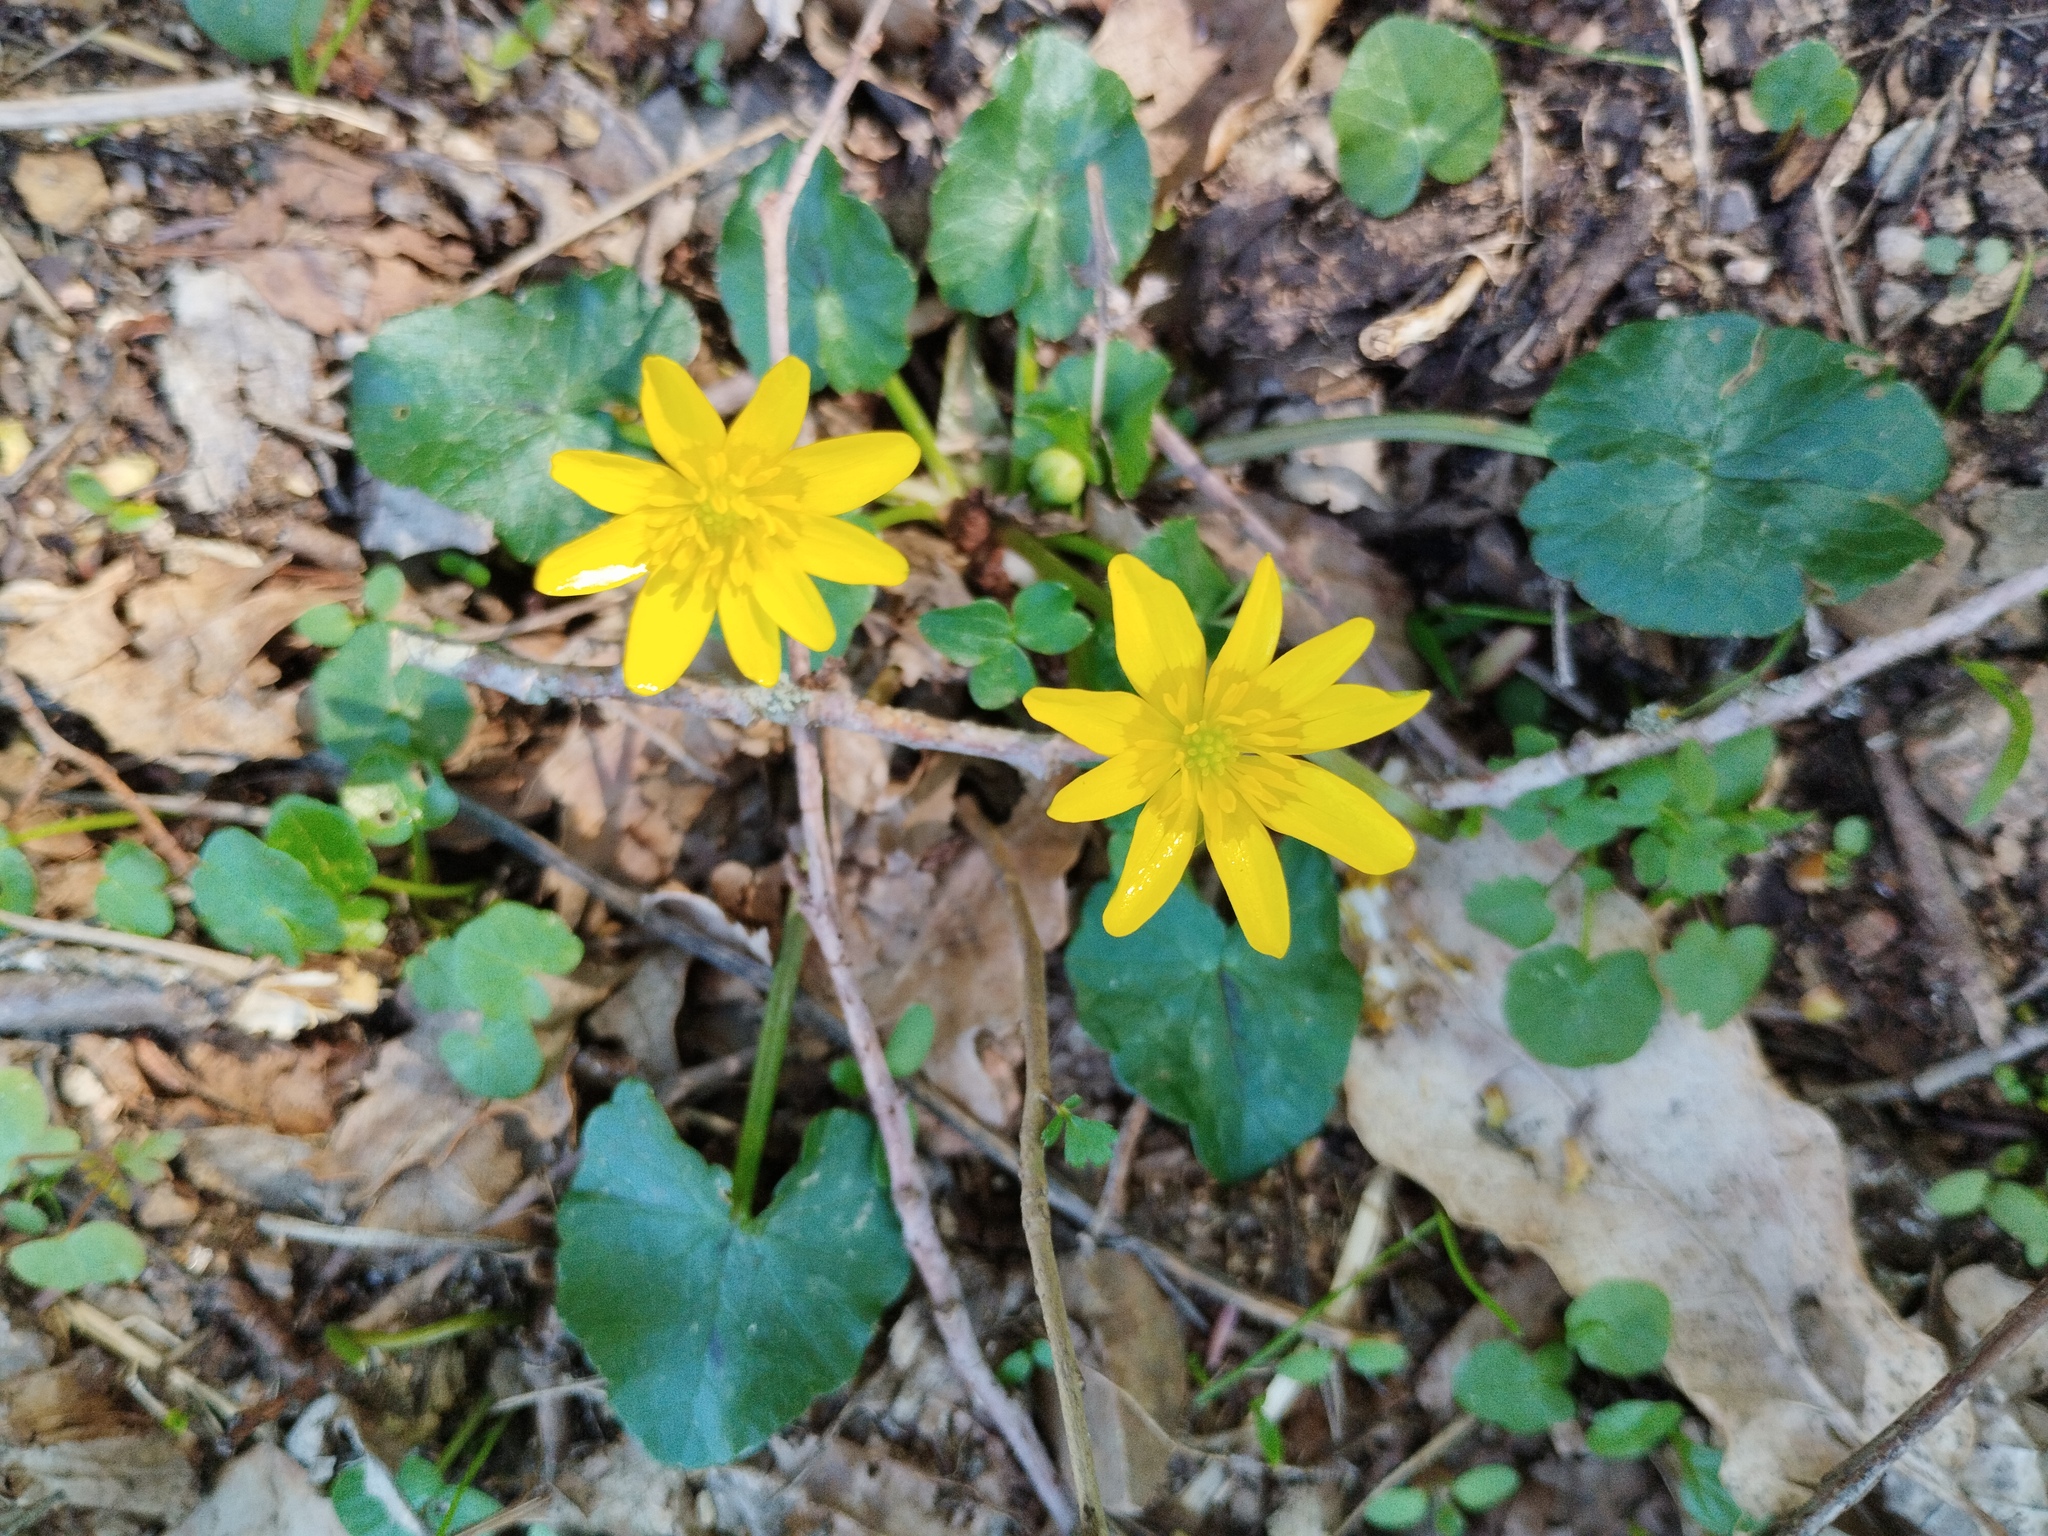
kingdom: Plantae
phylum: Tracheophyta
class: Magnoliopsida
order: Ranunculales
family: Ranunculaceae
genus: Ficaria
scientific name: Ficaria verna
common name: Lesser celandine
